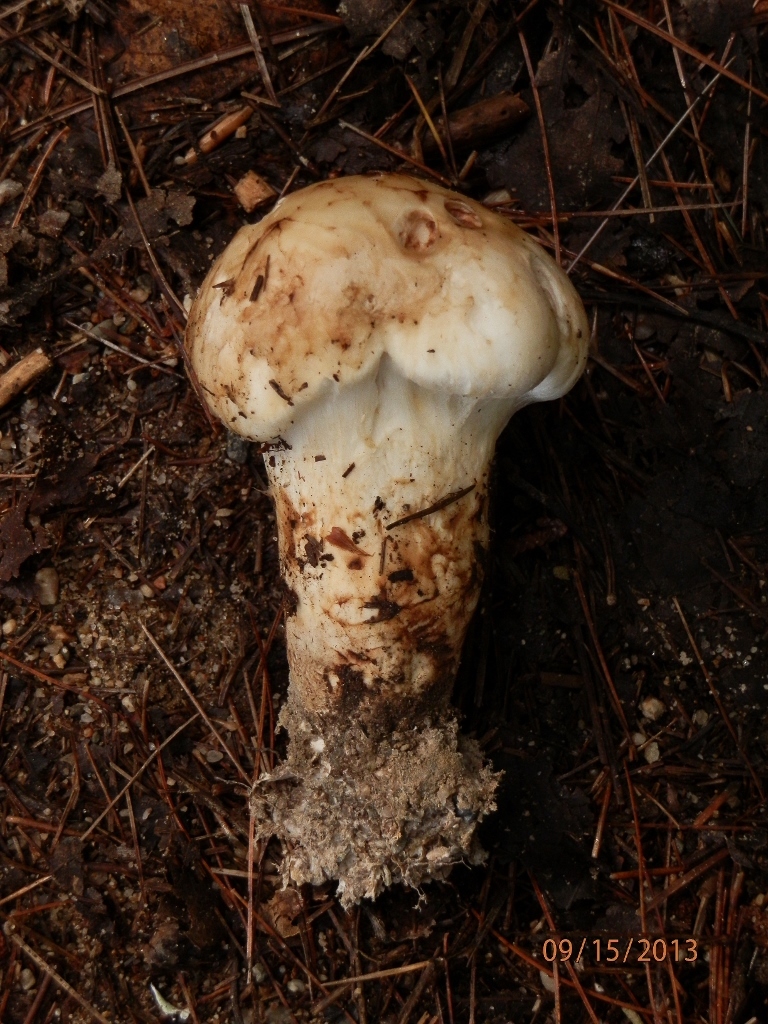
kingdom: Fungi
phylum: Basidiomycota
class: Agaricomycetes
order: Agaricales
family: Tricholomataceae
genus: Tricholoma
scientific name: Tricholoma magnivelare
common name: American matsutake
